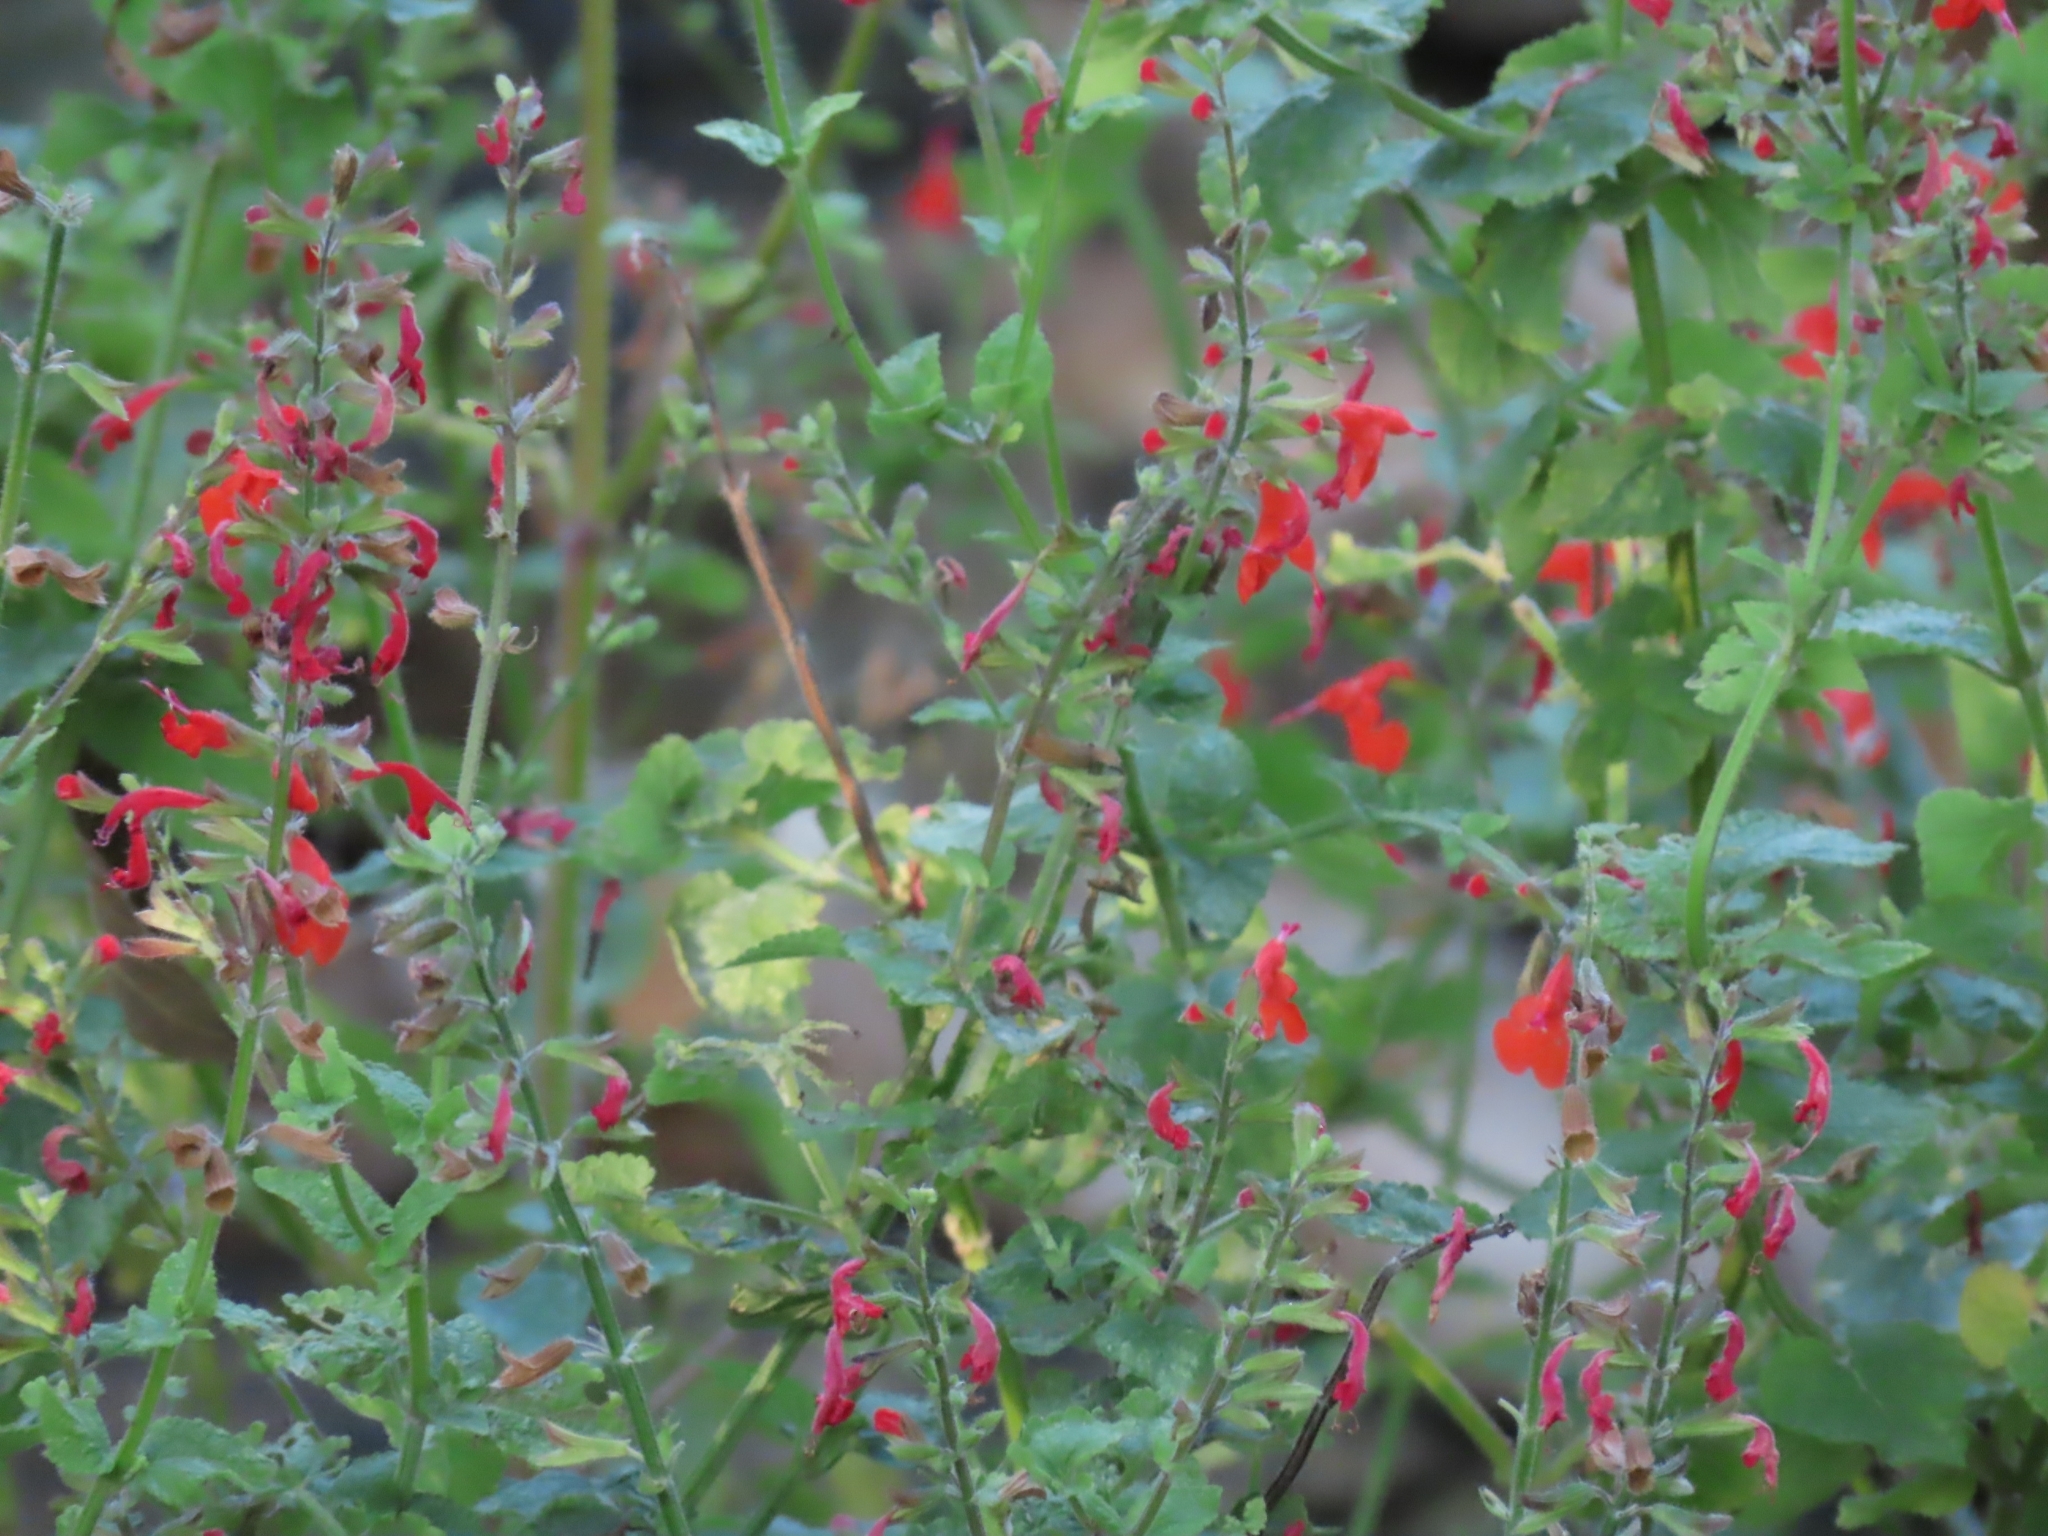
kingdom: Plantae
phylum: Tracheophyta
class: Magnoliopsida
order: Lamiales
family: Lamiaceae
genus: Salvia
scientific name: Salvia coccinea
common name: Blood sage
